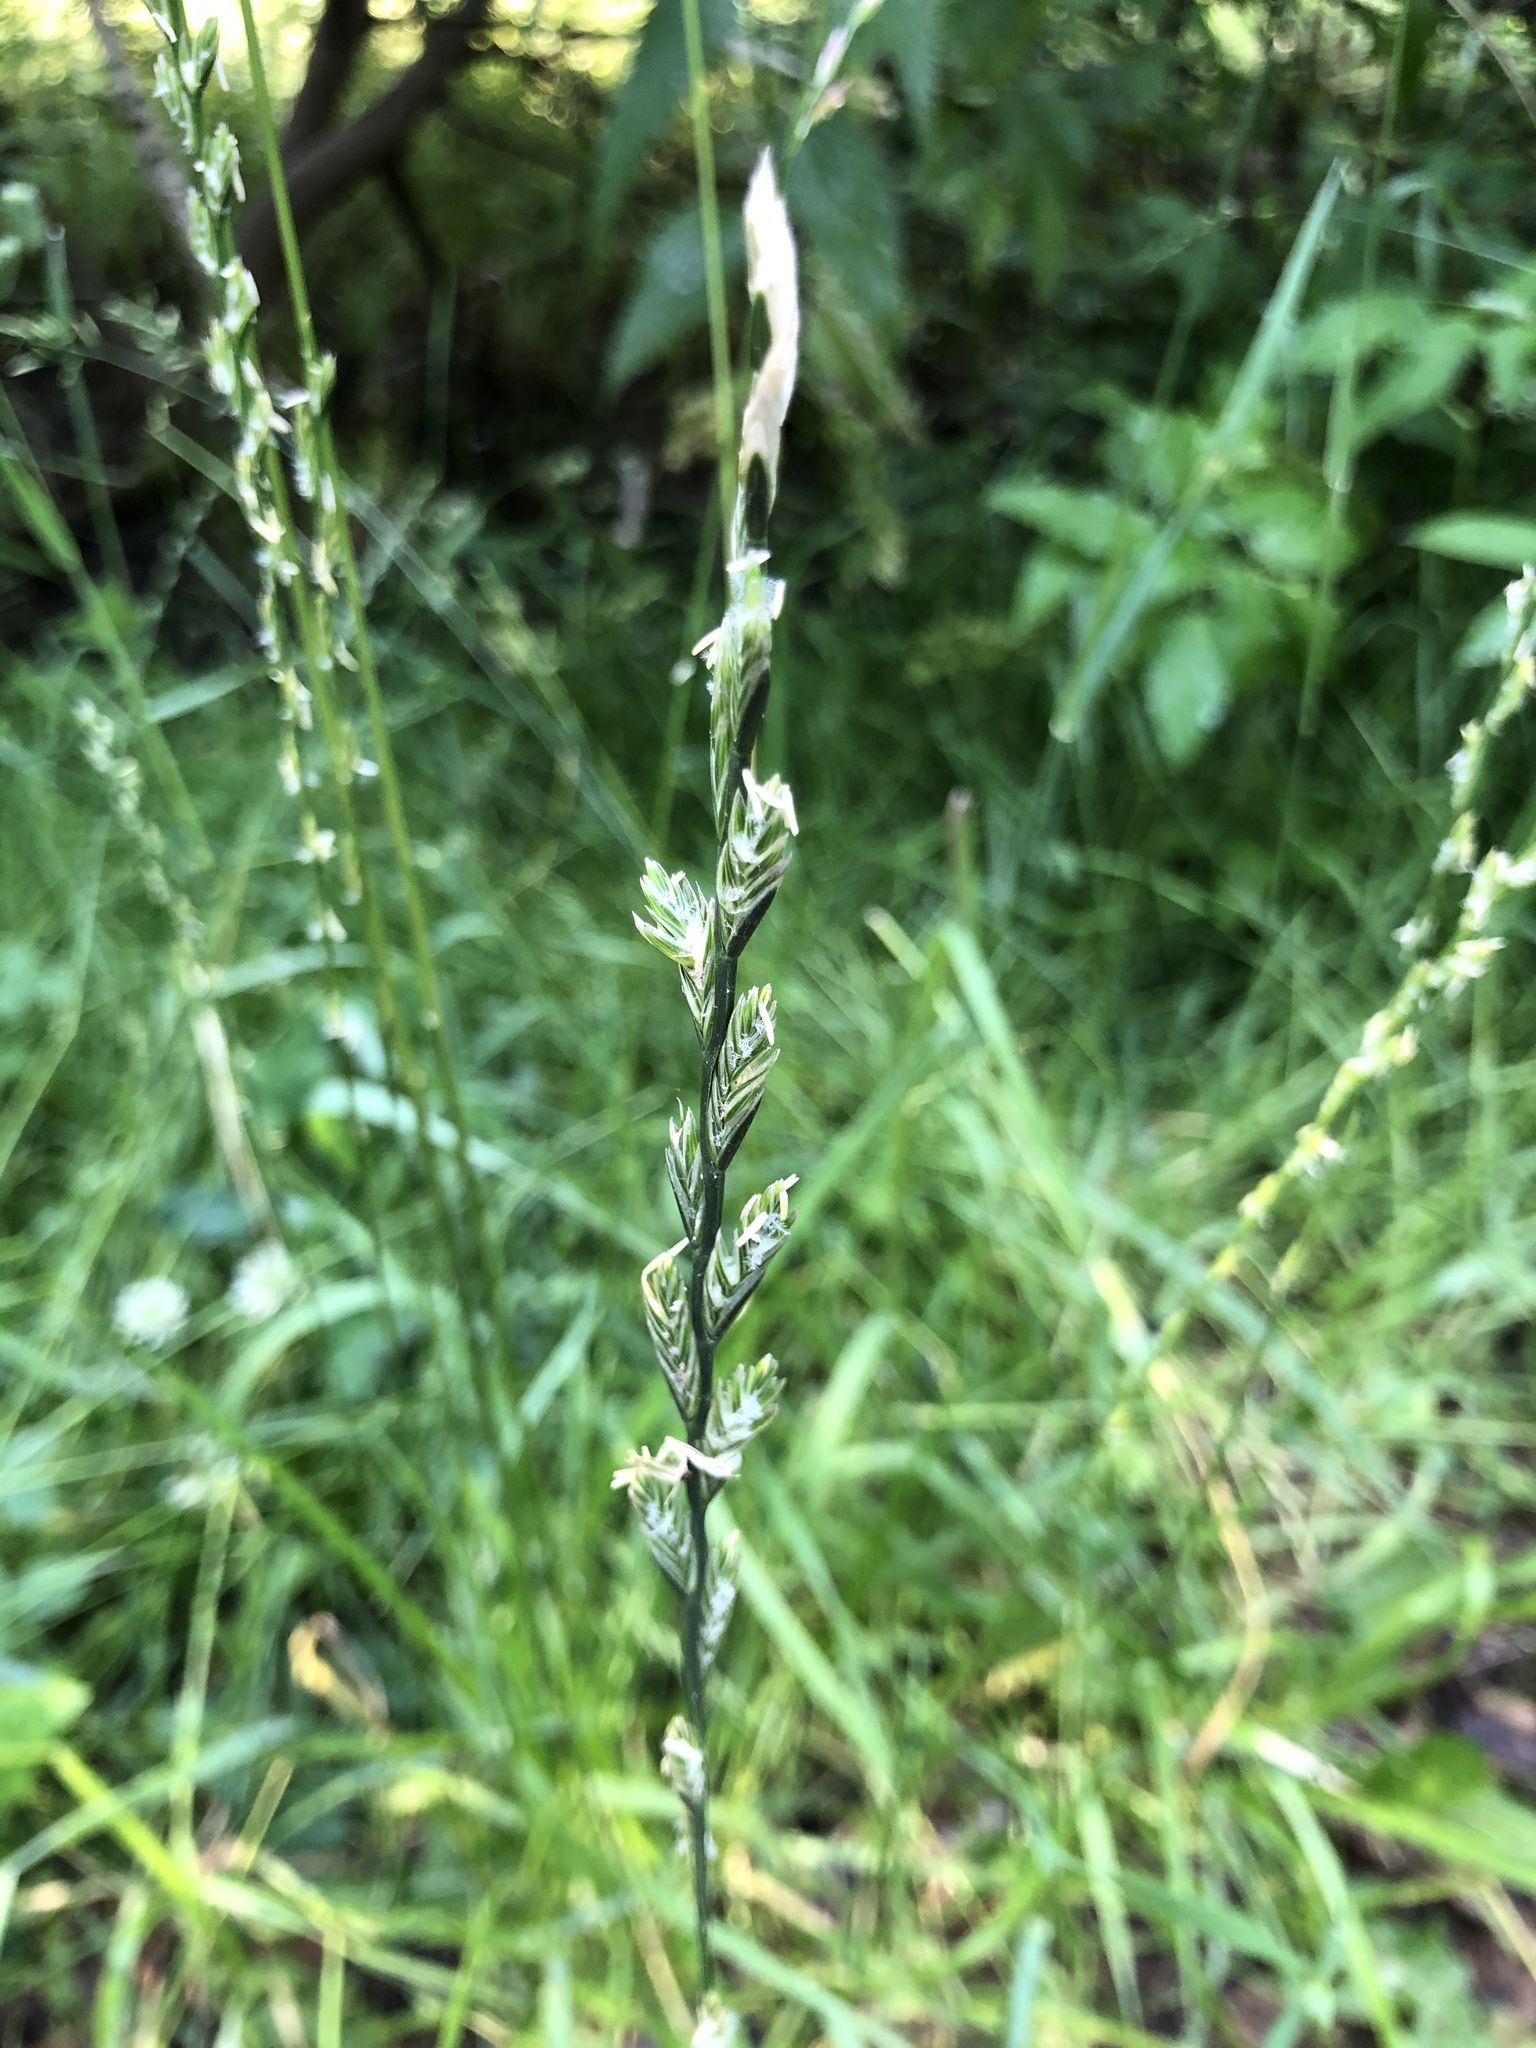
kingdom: Plantae
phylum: Tracheophyta
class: Liliopsida
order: Poales
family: Poaceae
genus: Lolium
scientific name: Lolium perenne
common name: Perennial ryegrass
